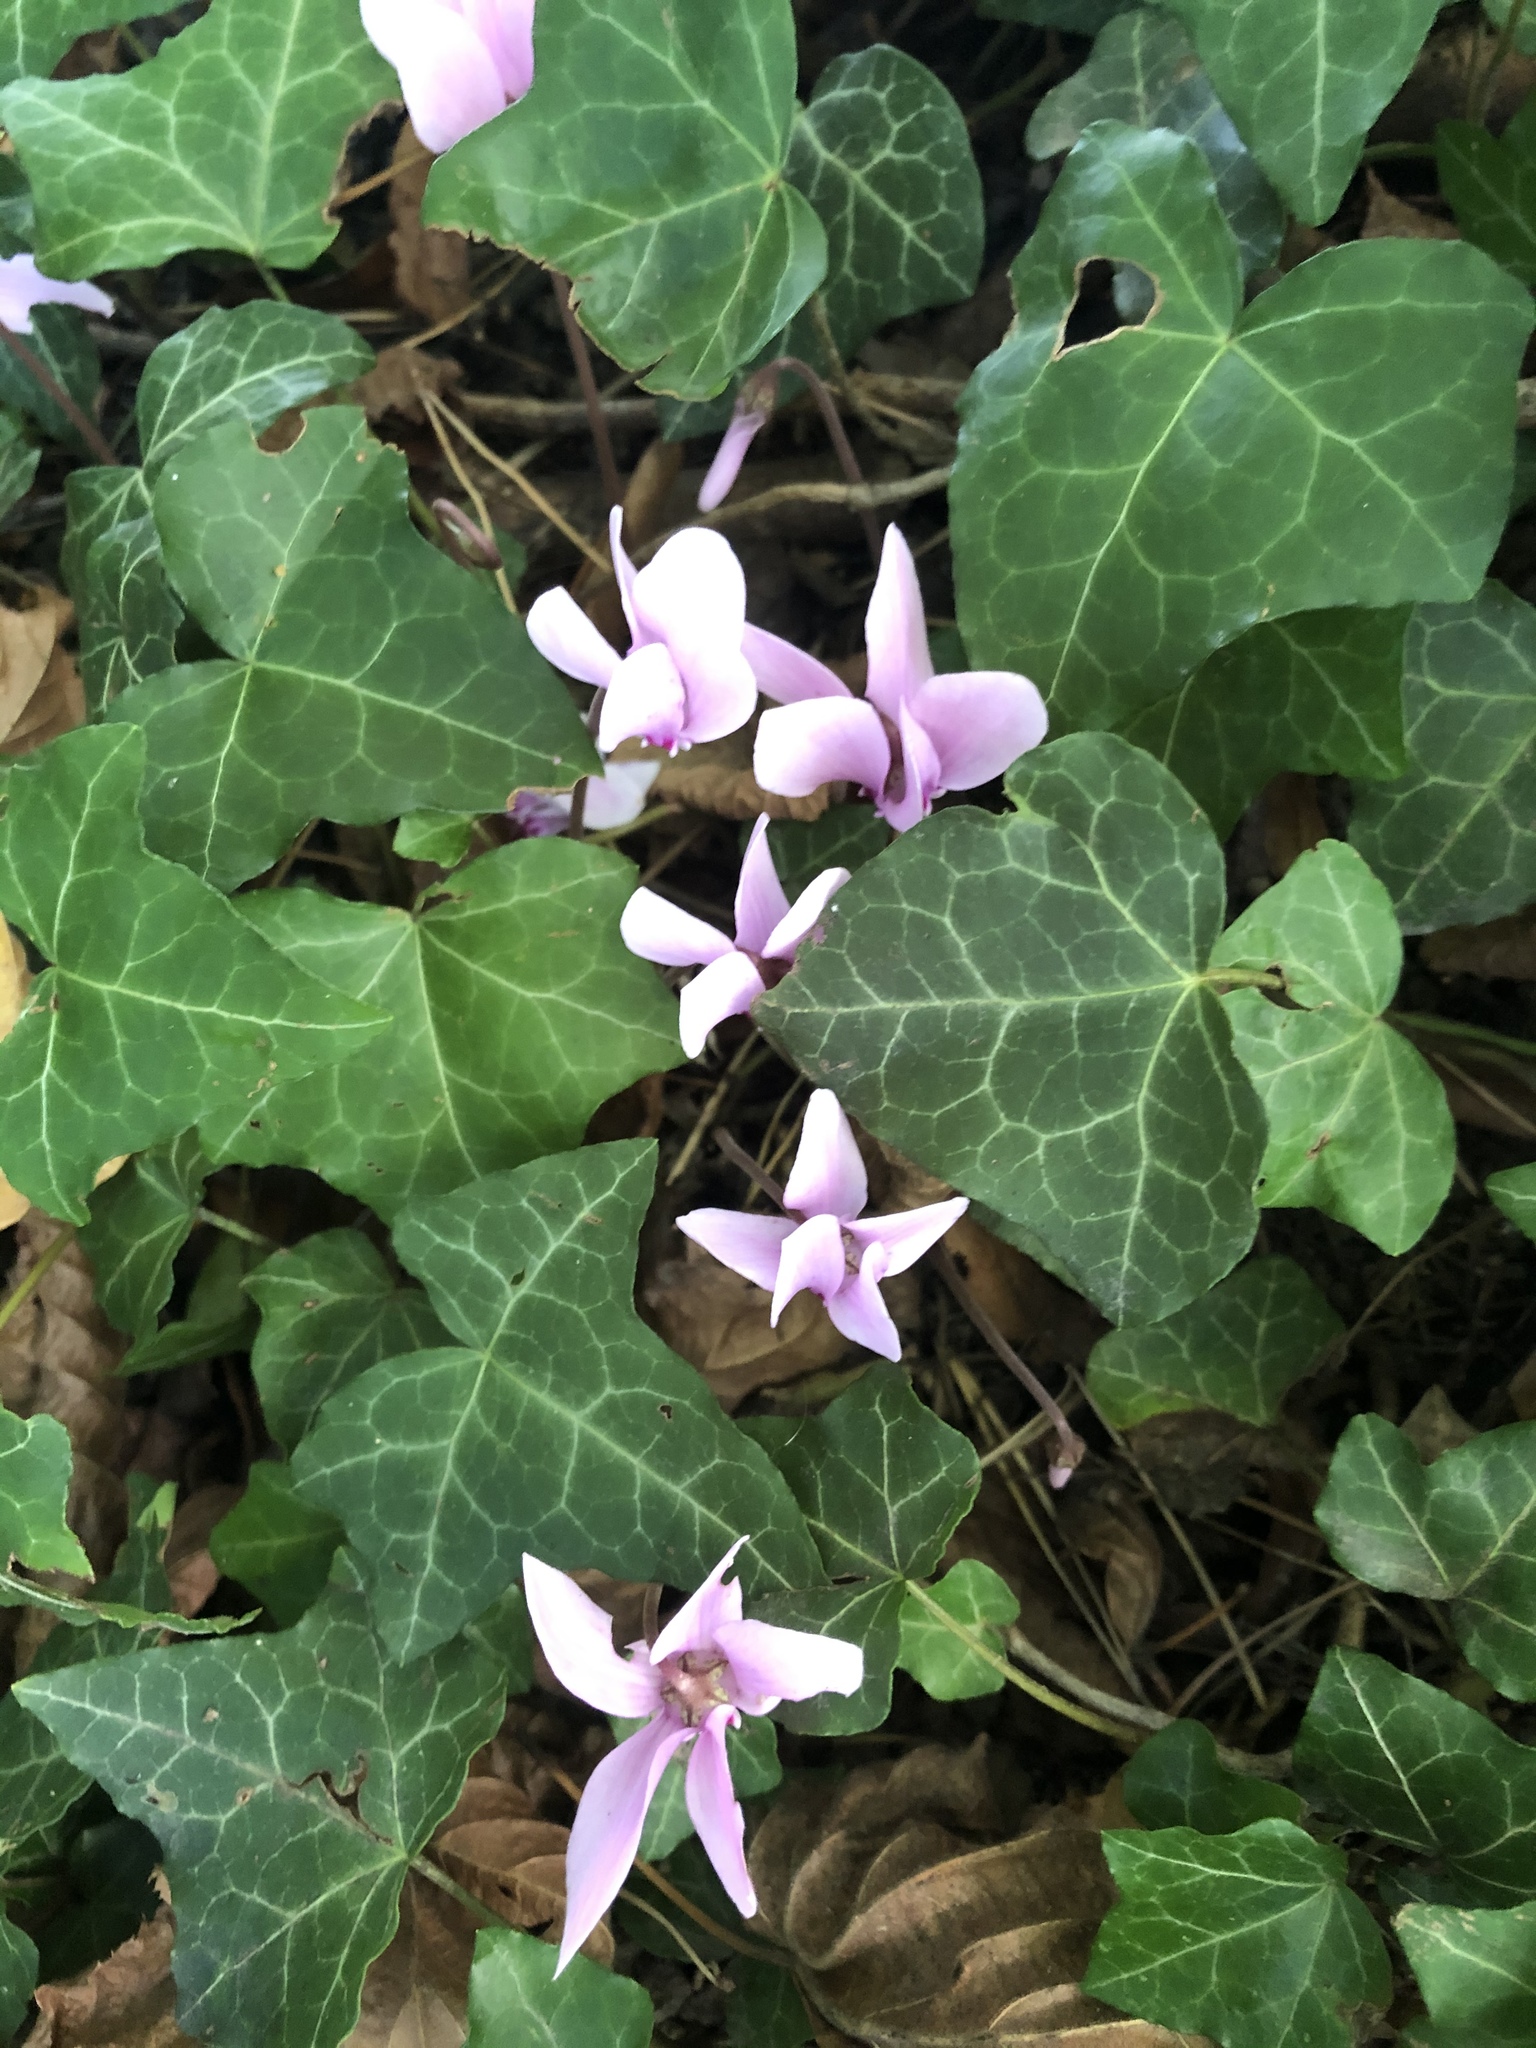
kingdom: Plantae
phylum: Tracheophyta
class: Magnoliopsida
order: Ericales
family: Primulaceae
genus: Cyclamen
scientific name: Cyclamen hederifolium
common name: Sowbread
